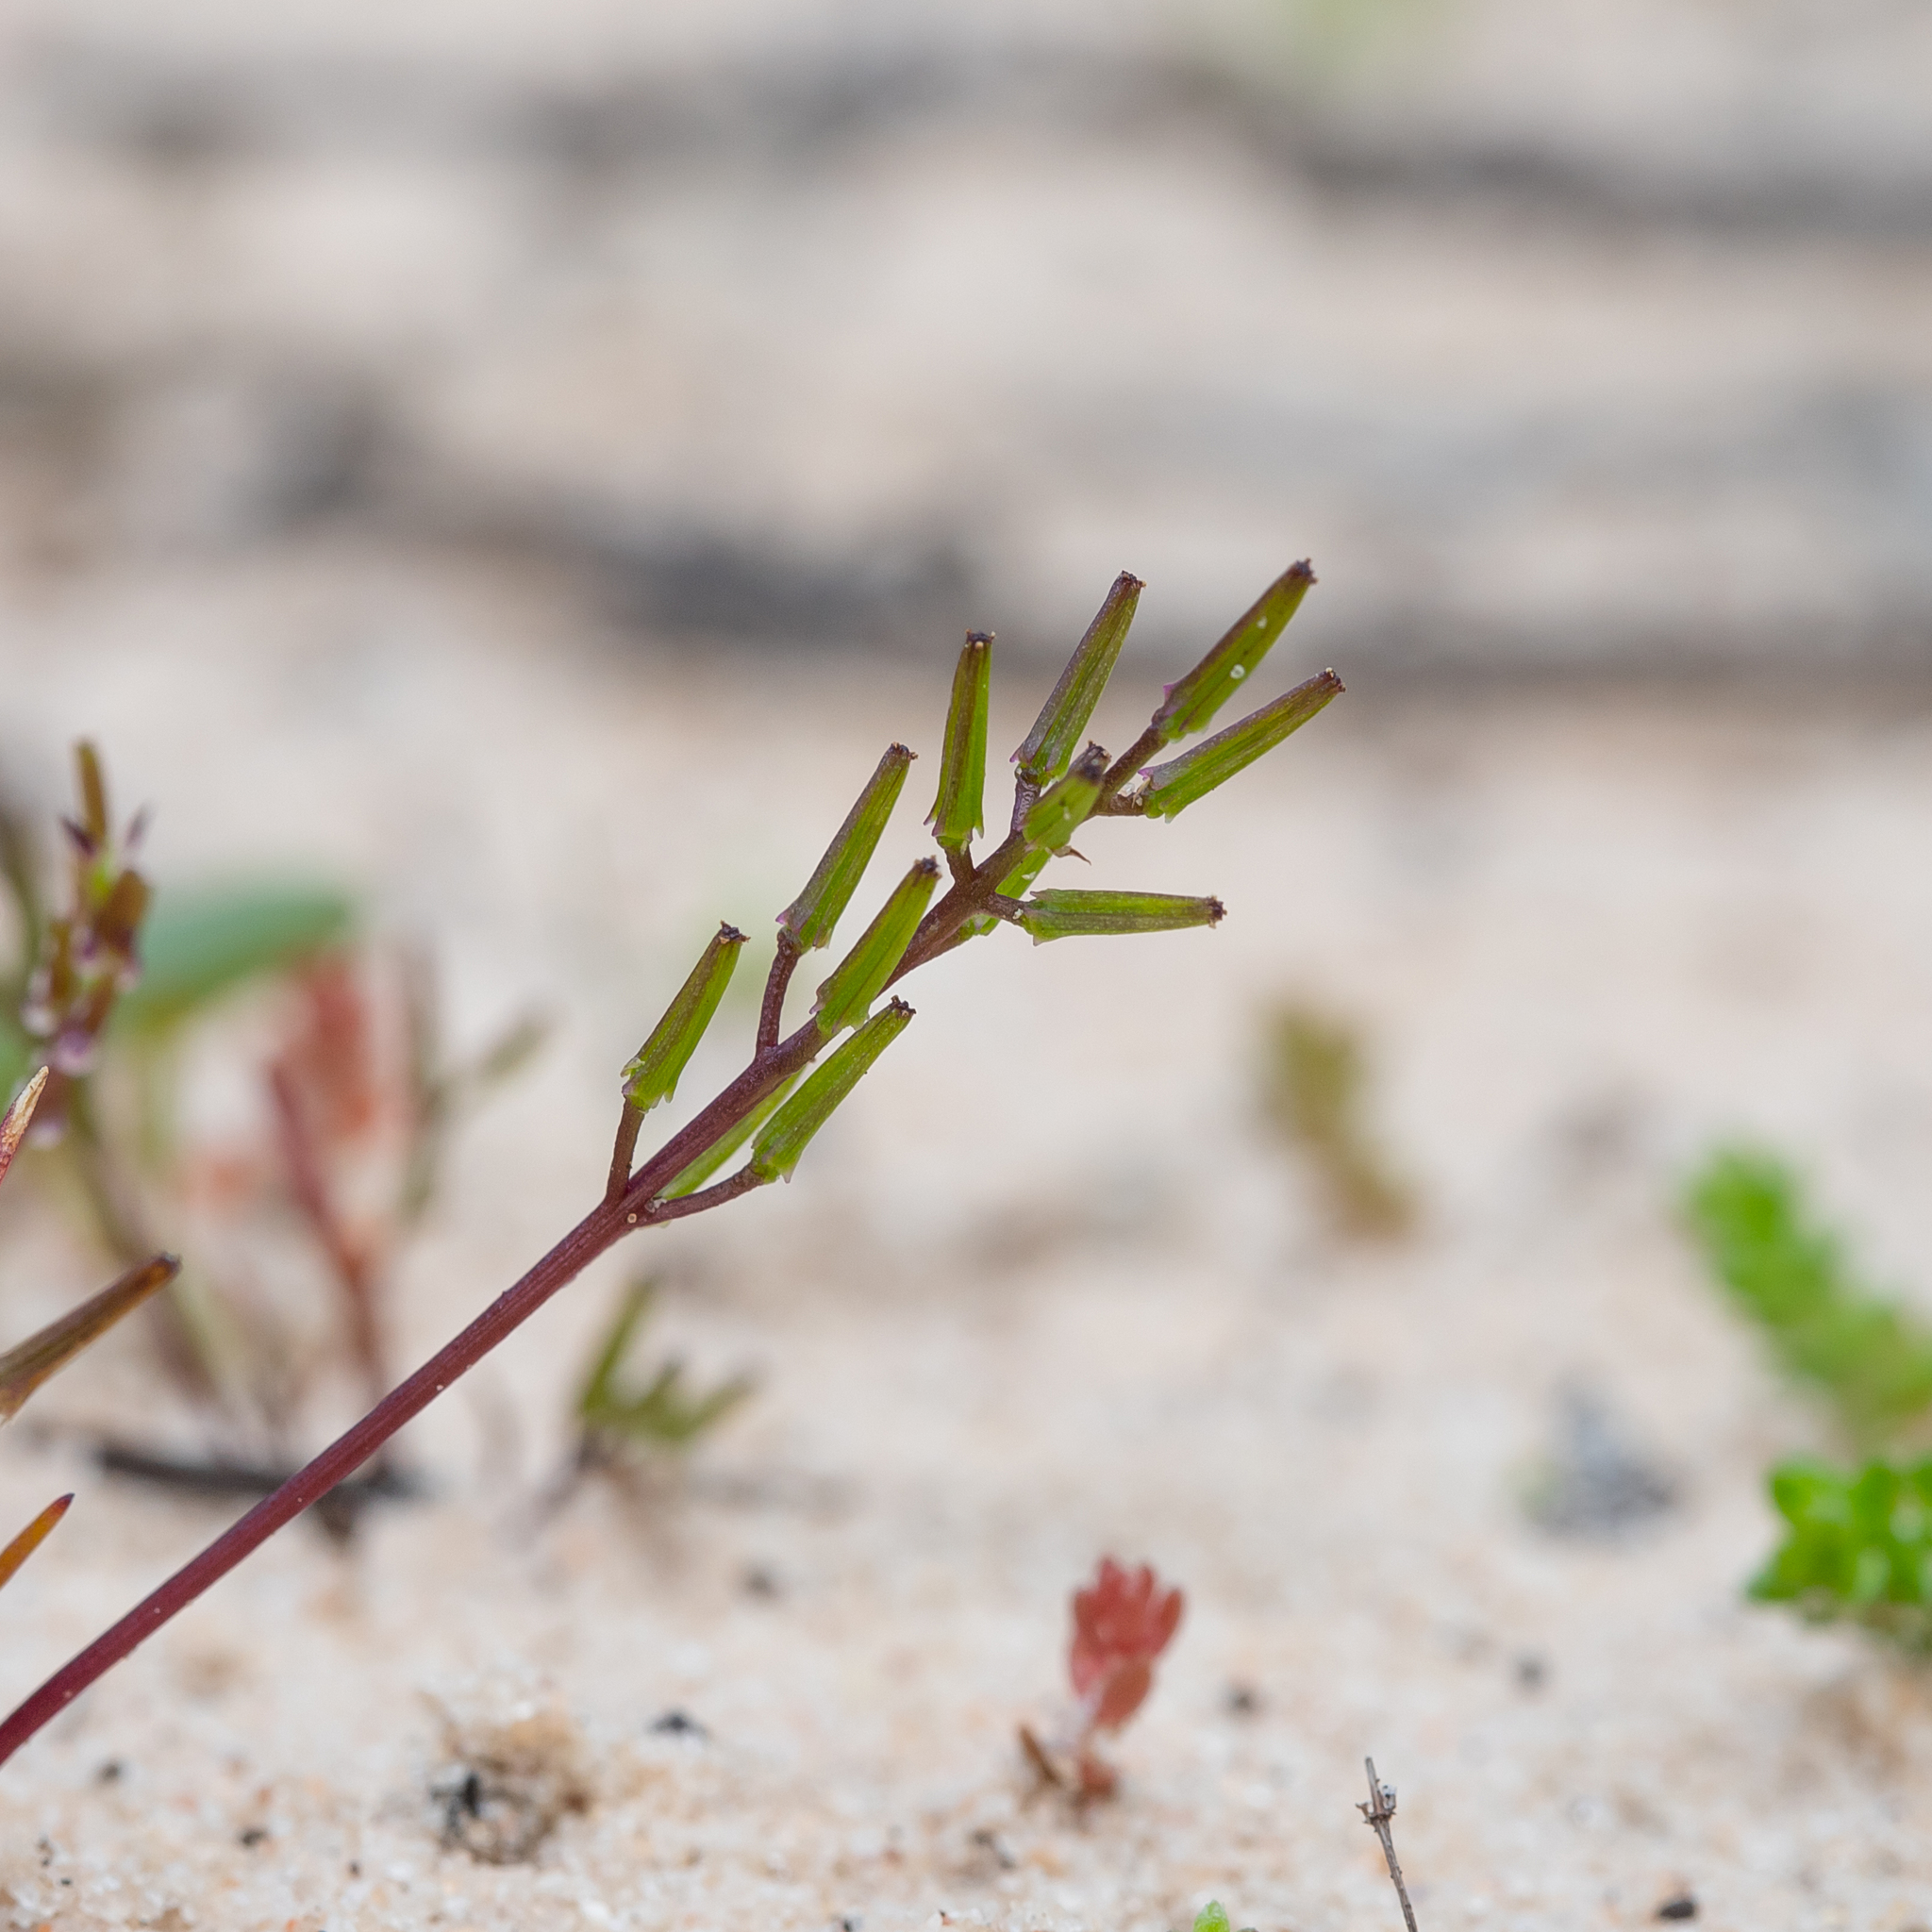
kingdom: Plantae
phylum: Tracheophyta
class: Liliopsida
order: Alismatales
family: Juncaginaceae
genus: Triglochin
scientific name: Triglochin nana
